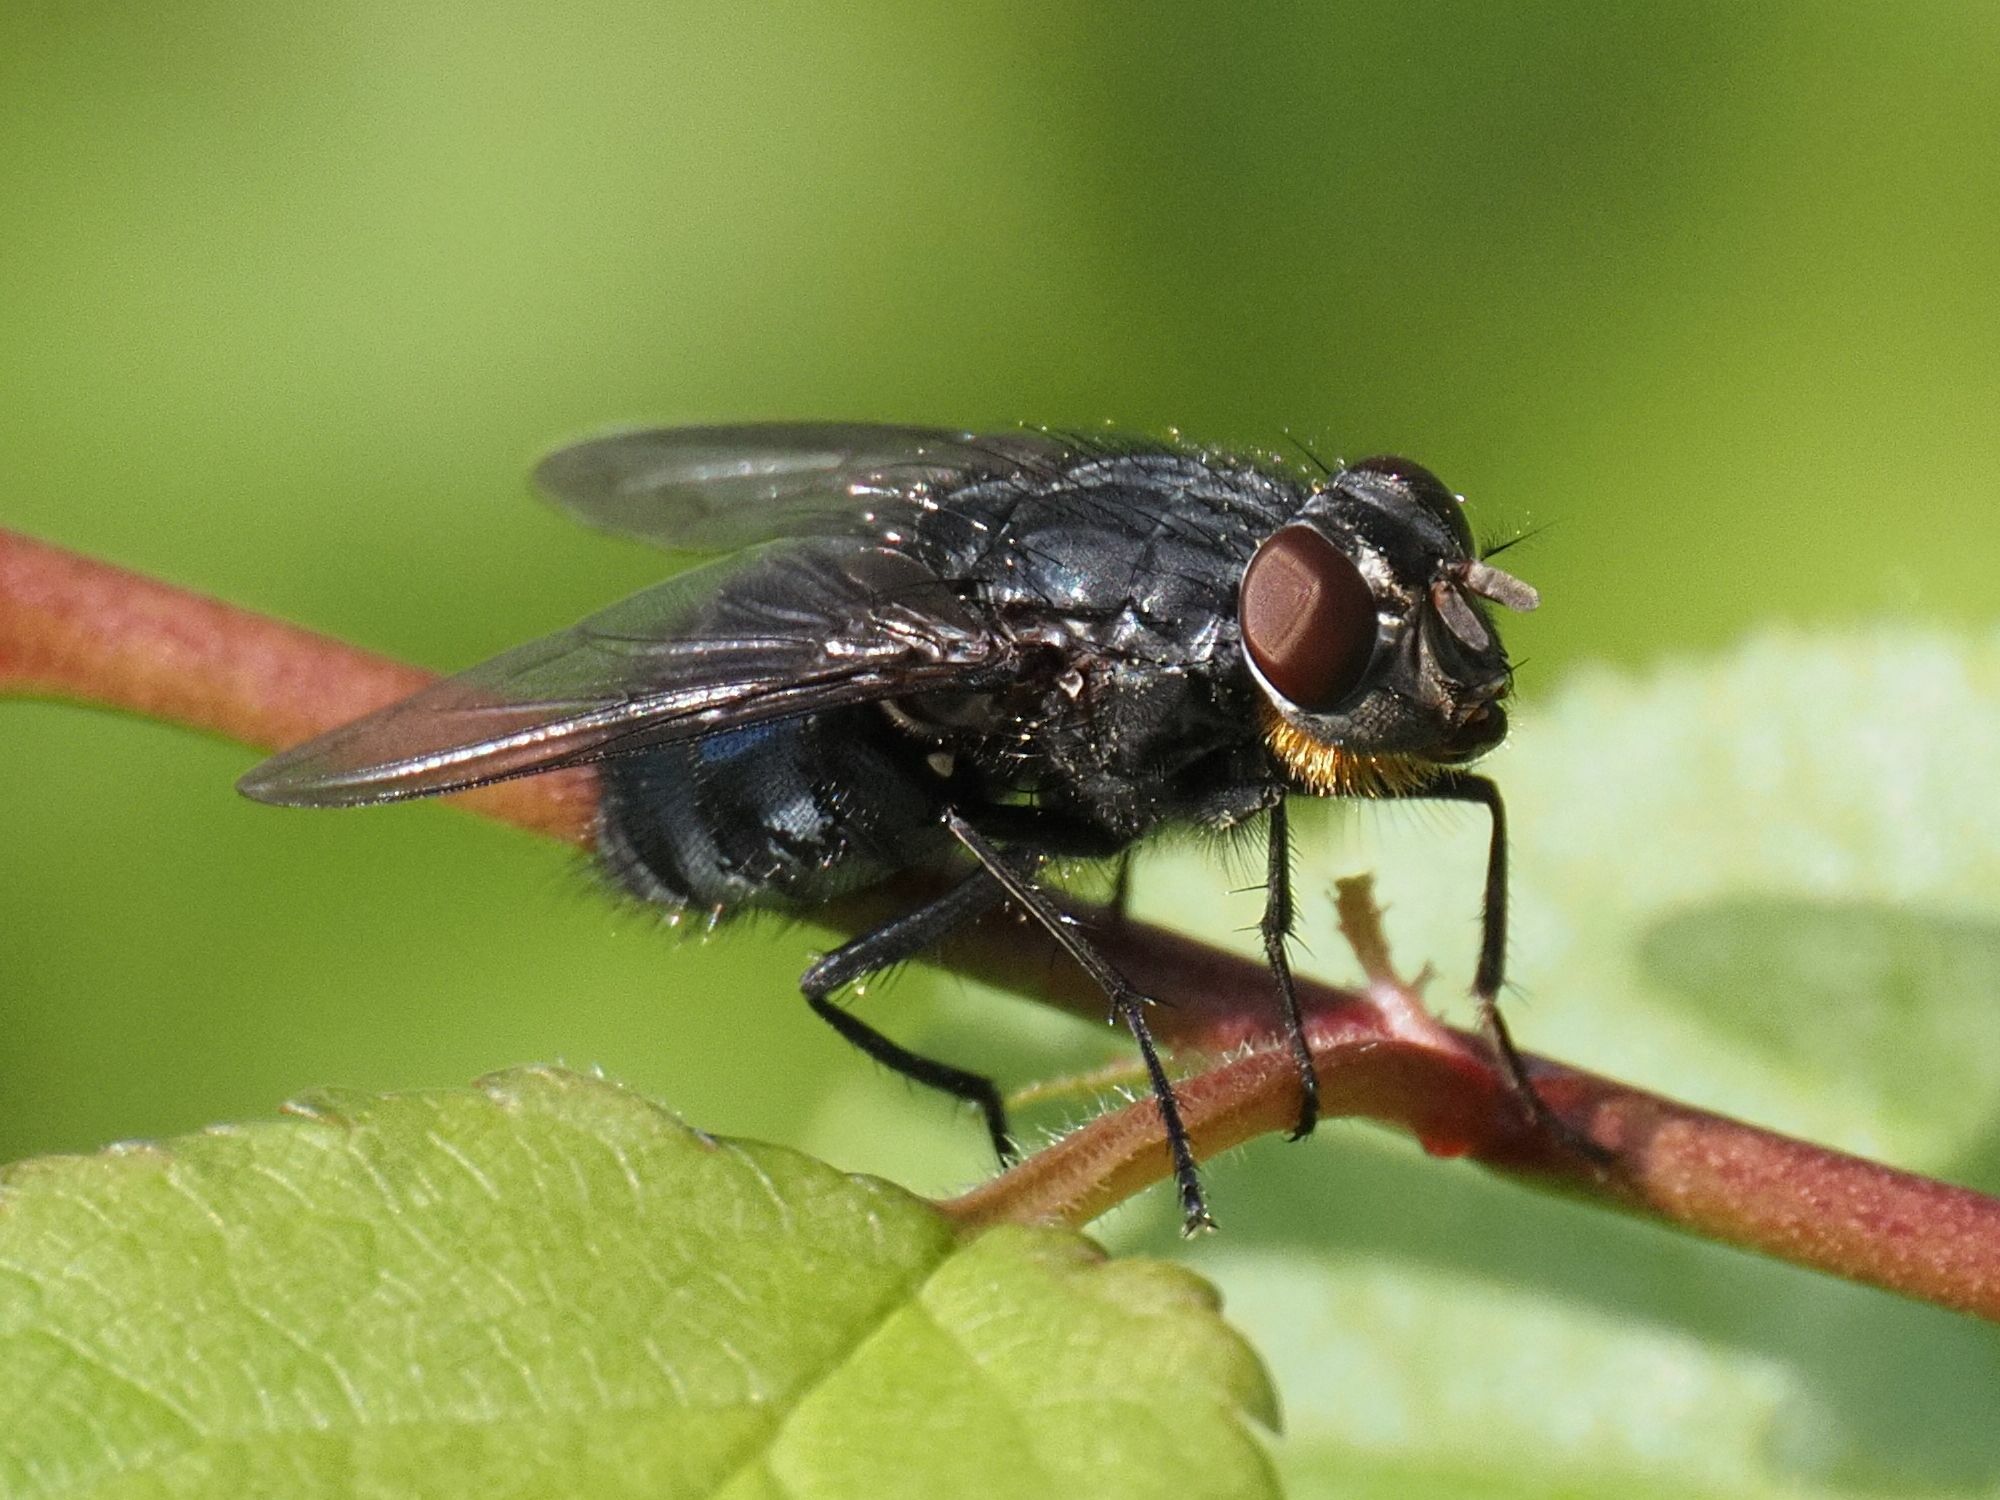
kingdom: Animalia
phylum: Arthropoda
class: Insecta
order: Diptera
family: Calliphoridae
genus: Calliphora
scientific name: Calliphora vomitoria
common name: Blue bottle fly
